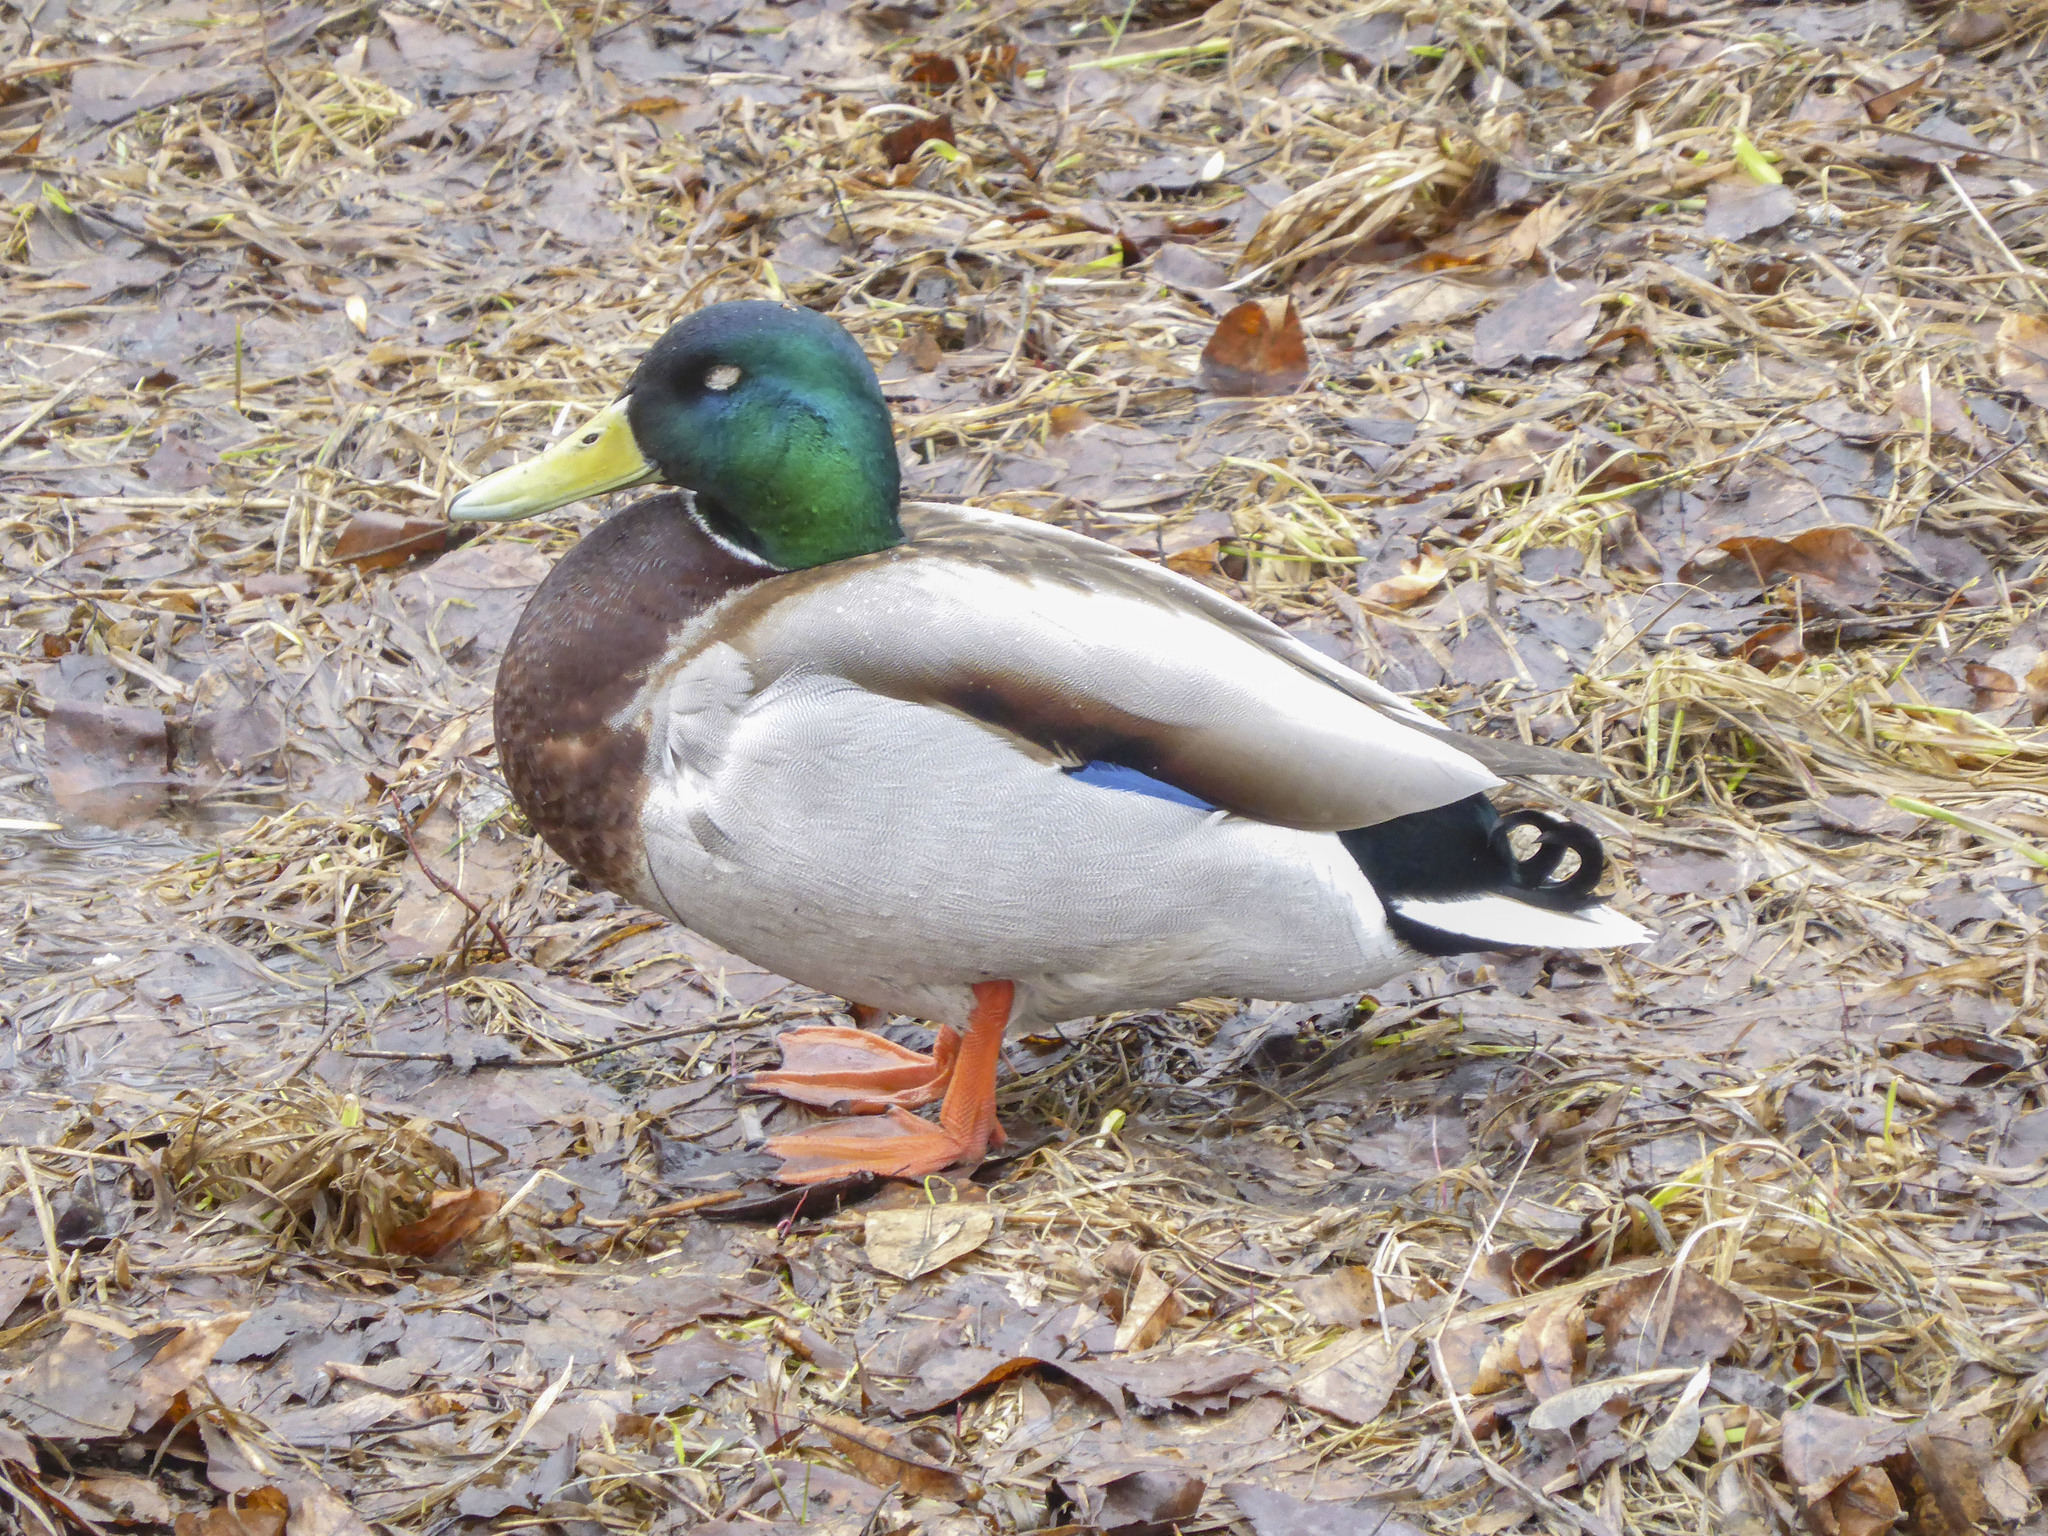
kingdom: Animalia
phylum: Chordata
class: Aves
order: Anseriformes
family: Anatidae
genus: Anas
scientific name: Anas platyrhynchos
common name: Mallard
